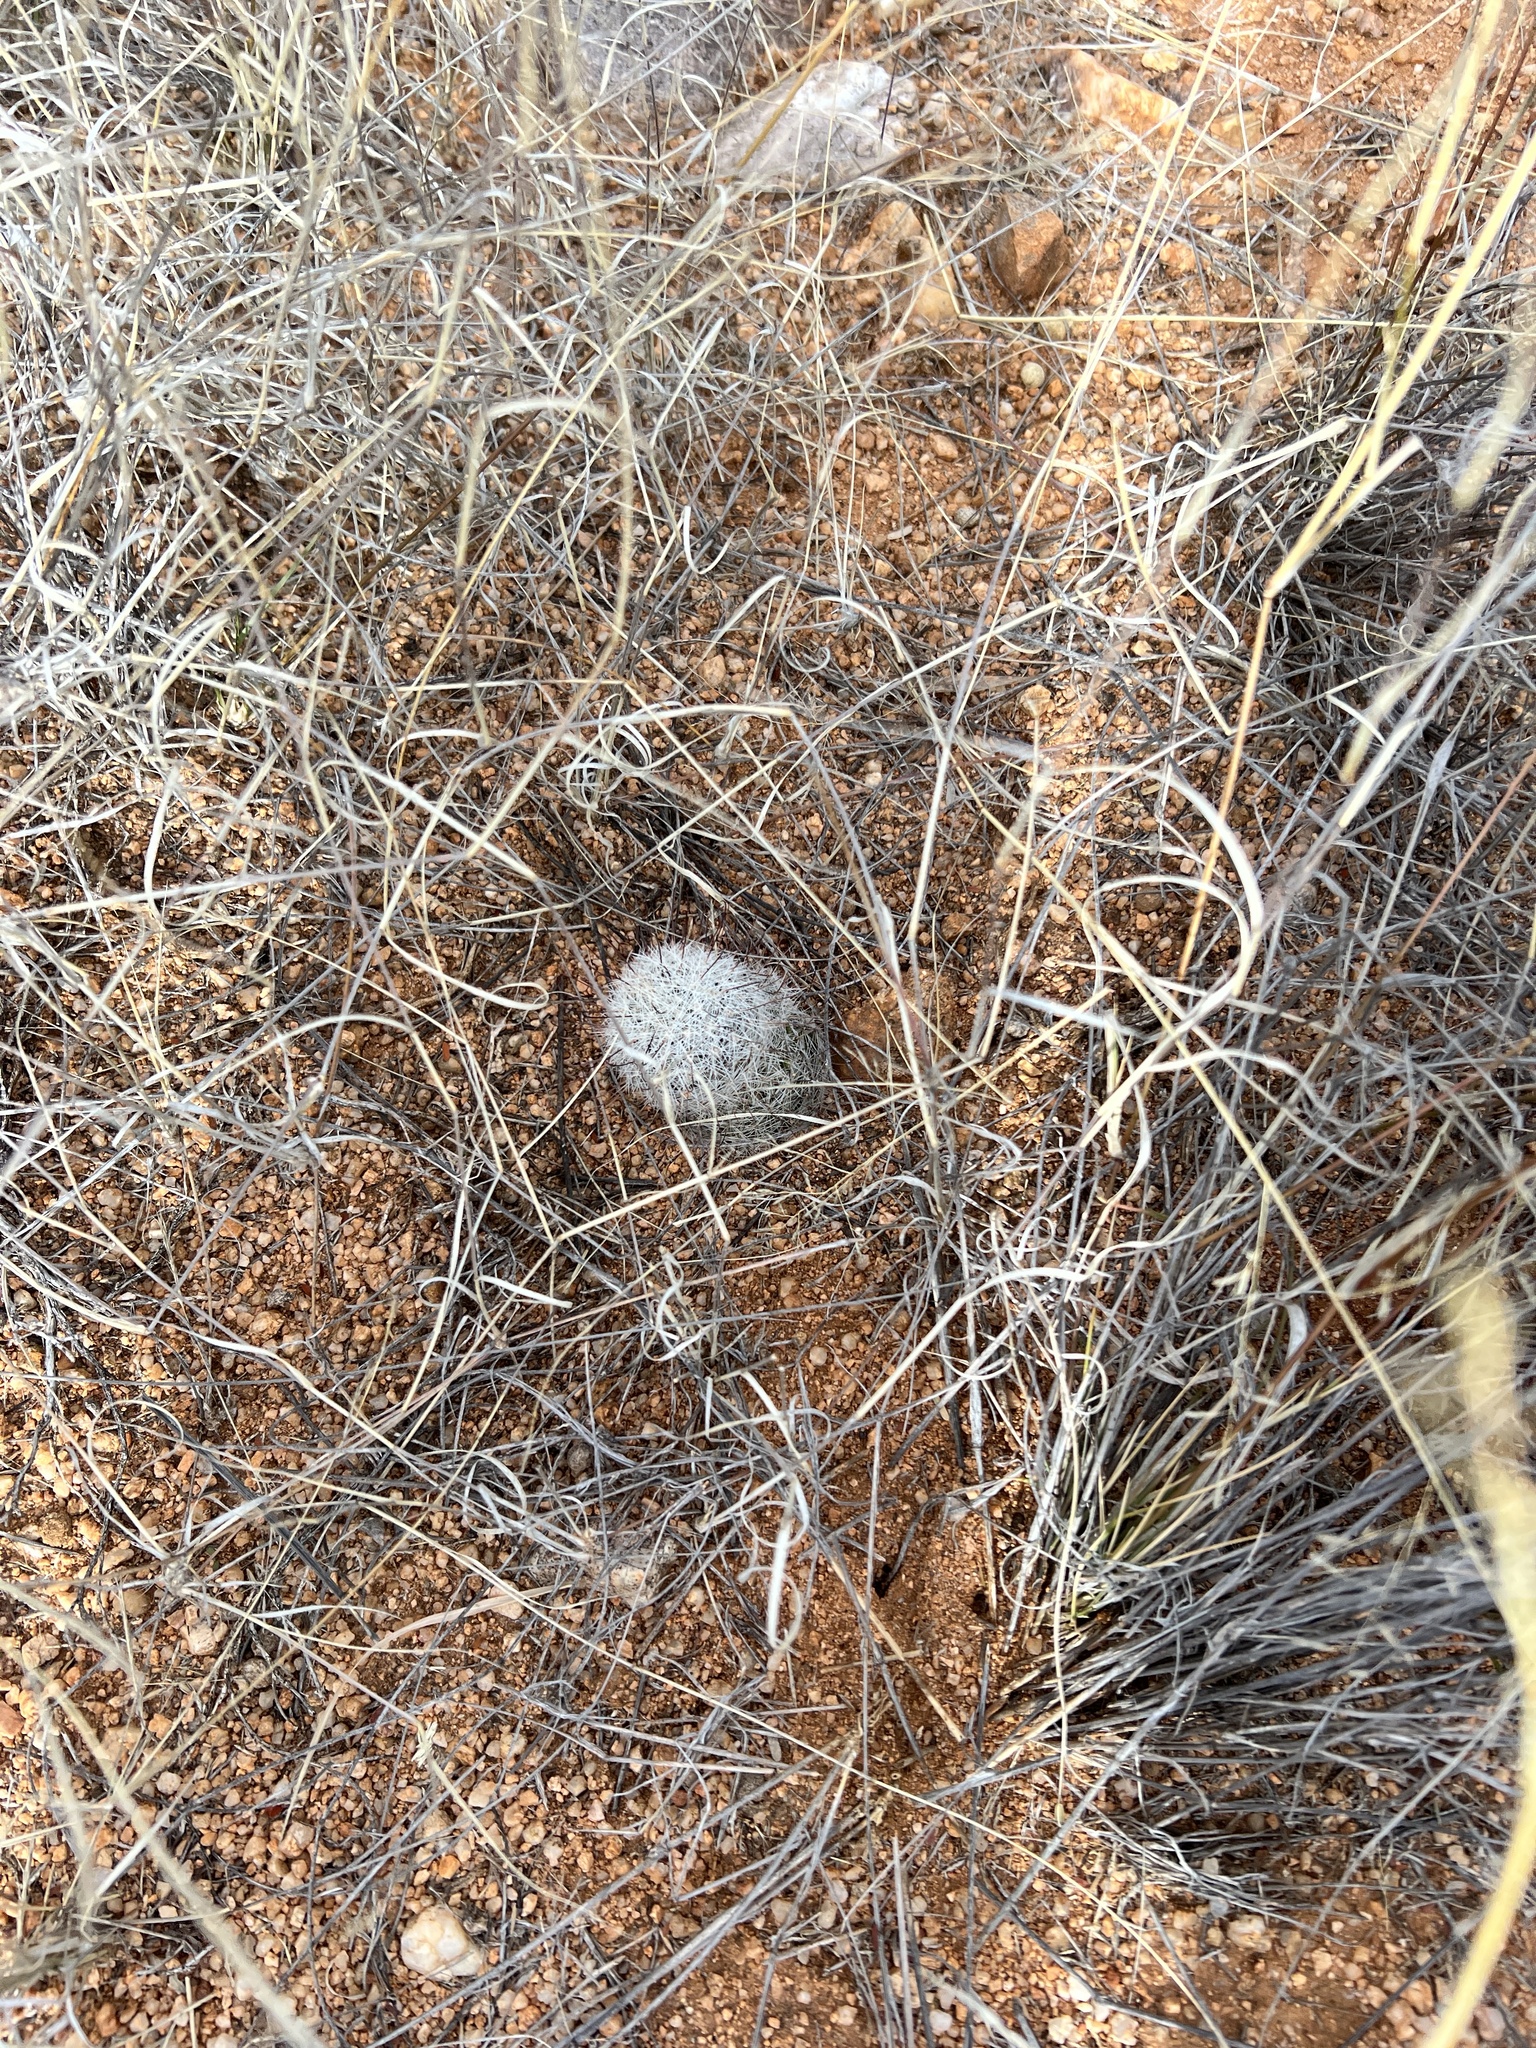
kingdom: Plantae
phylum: Tracheophyta
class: Magnoliopsida
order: Caryophyllales
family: Cactaceae
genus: Cochemiea
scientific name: Cochemiea grahamii
